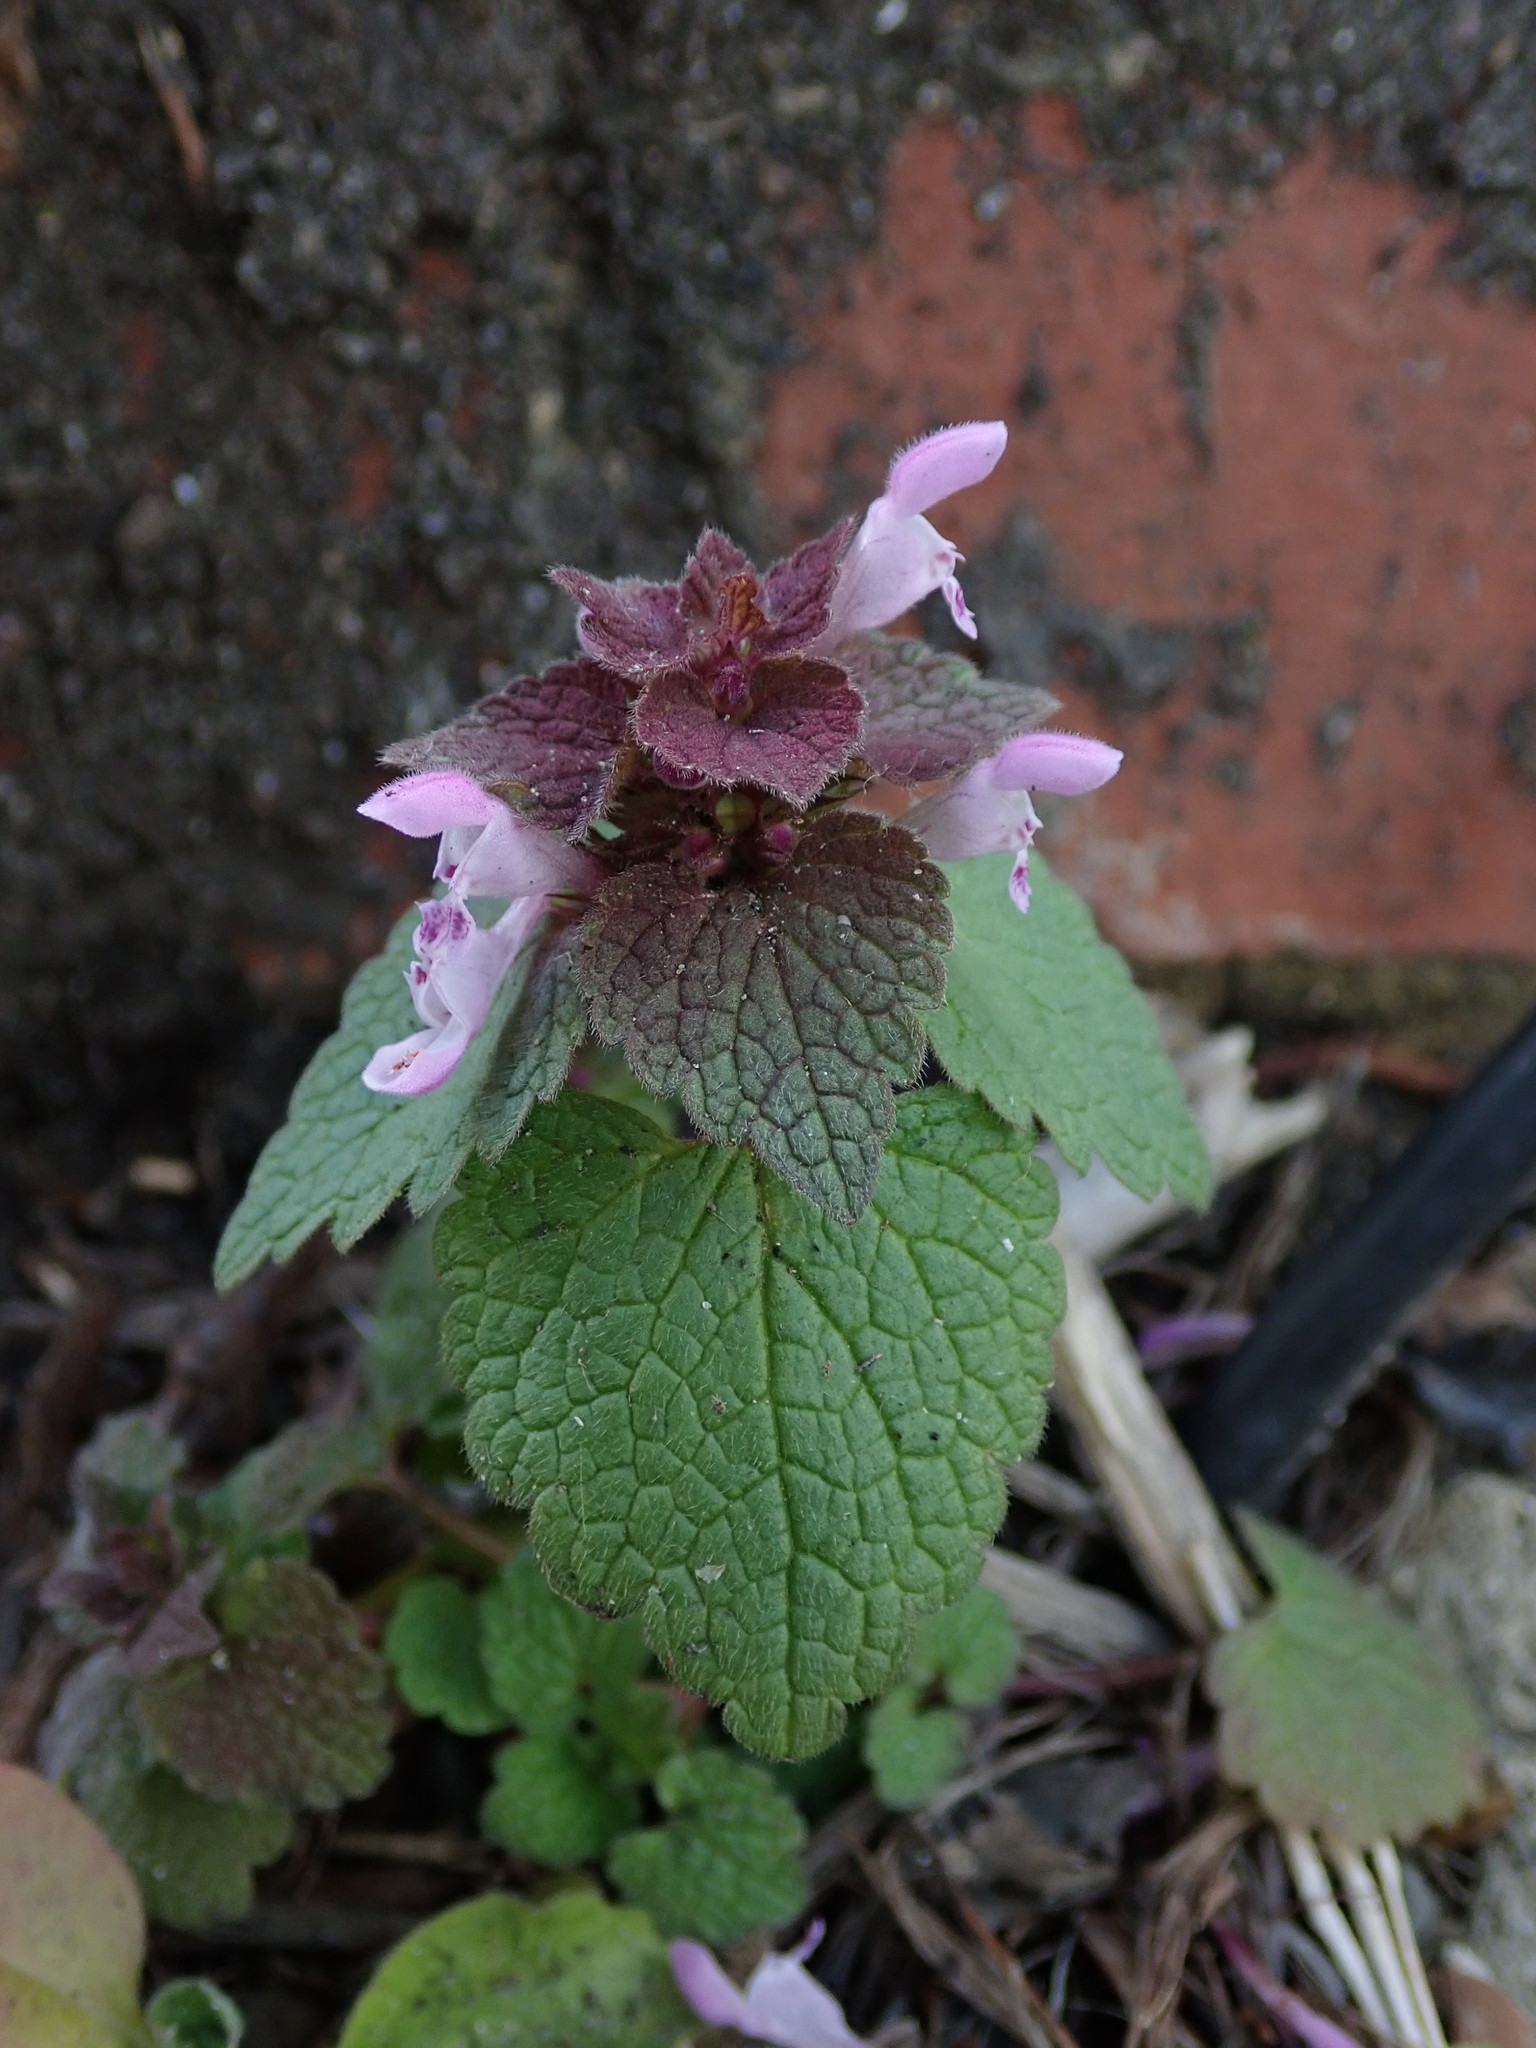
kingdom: Plantae
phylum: Tracheophyta
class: Magnoliopsida
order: Lamiales
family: Lamiaceae
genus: Lamium
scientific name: Lamium purpureum
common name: Red dead-nettle
